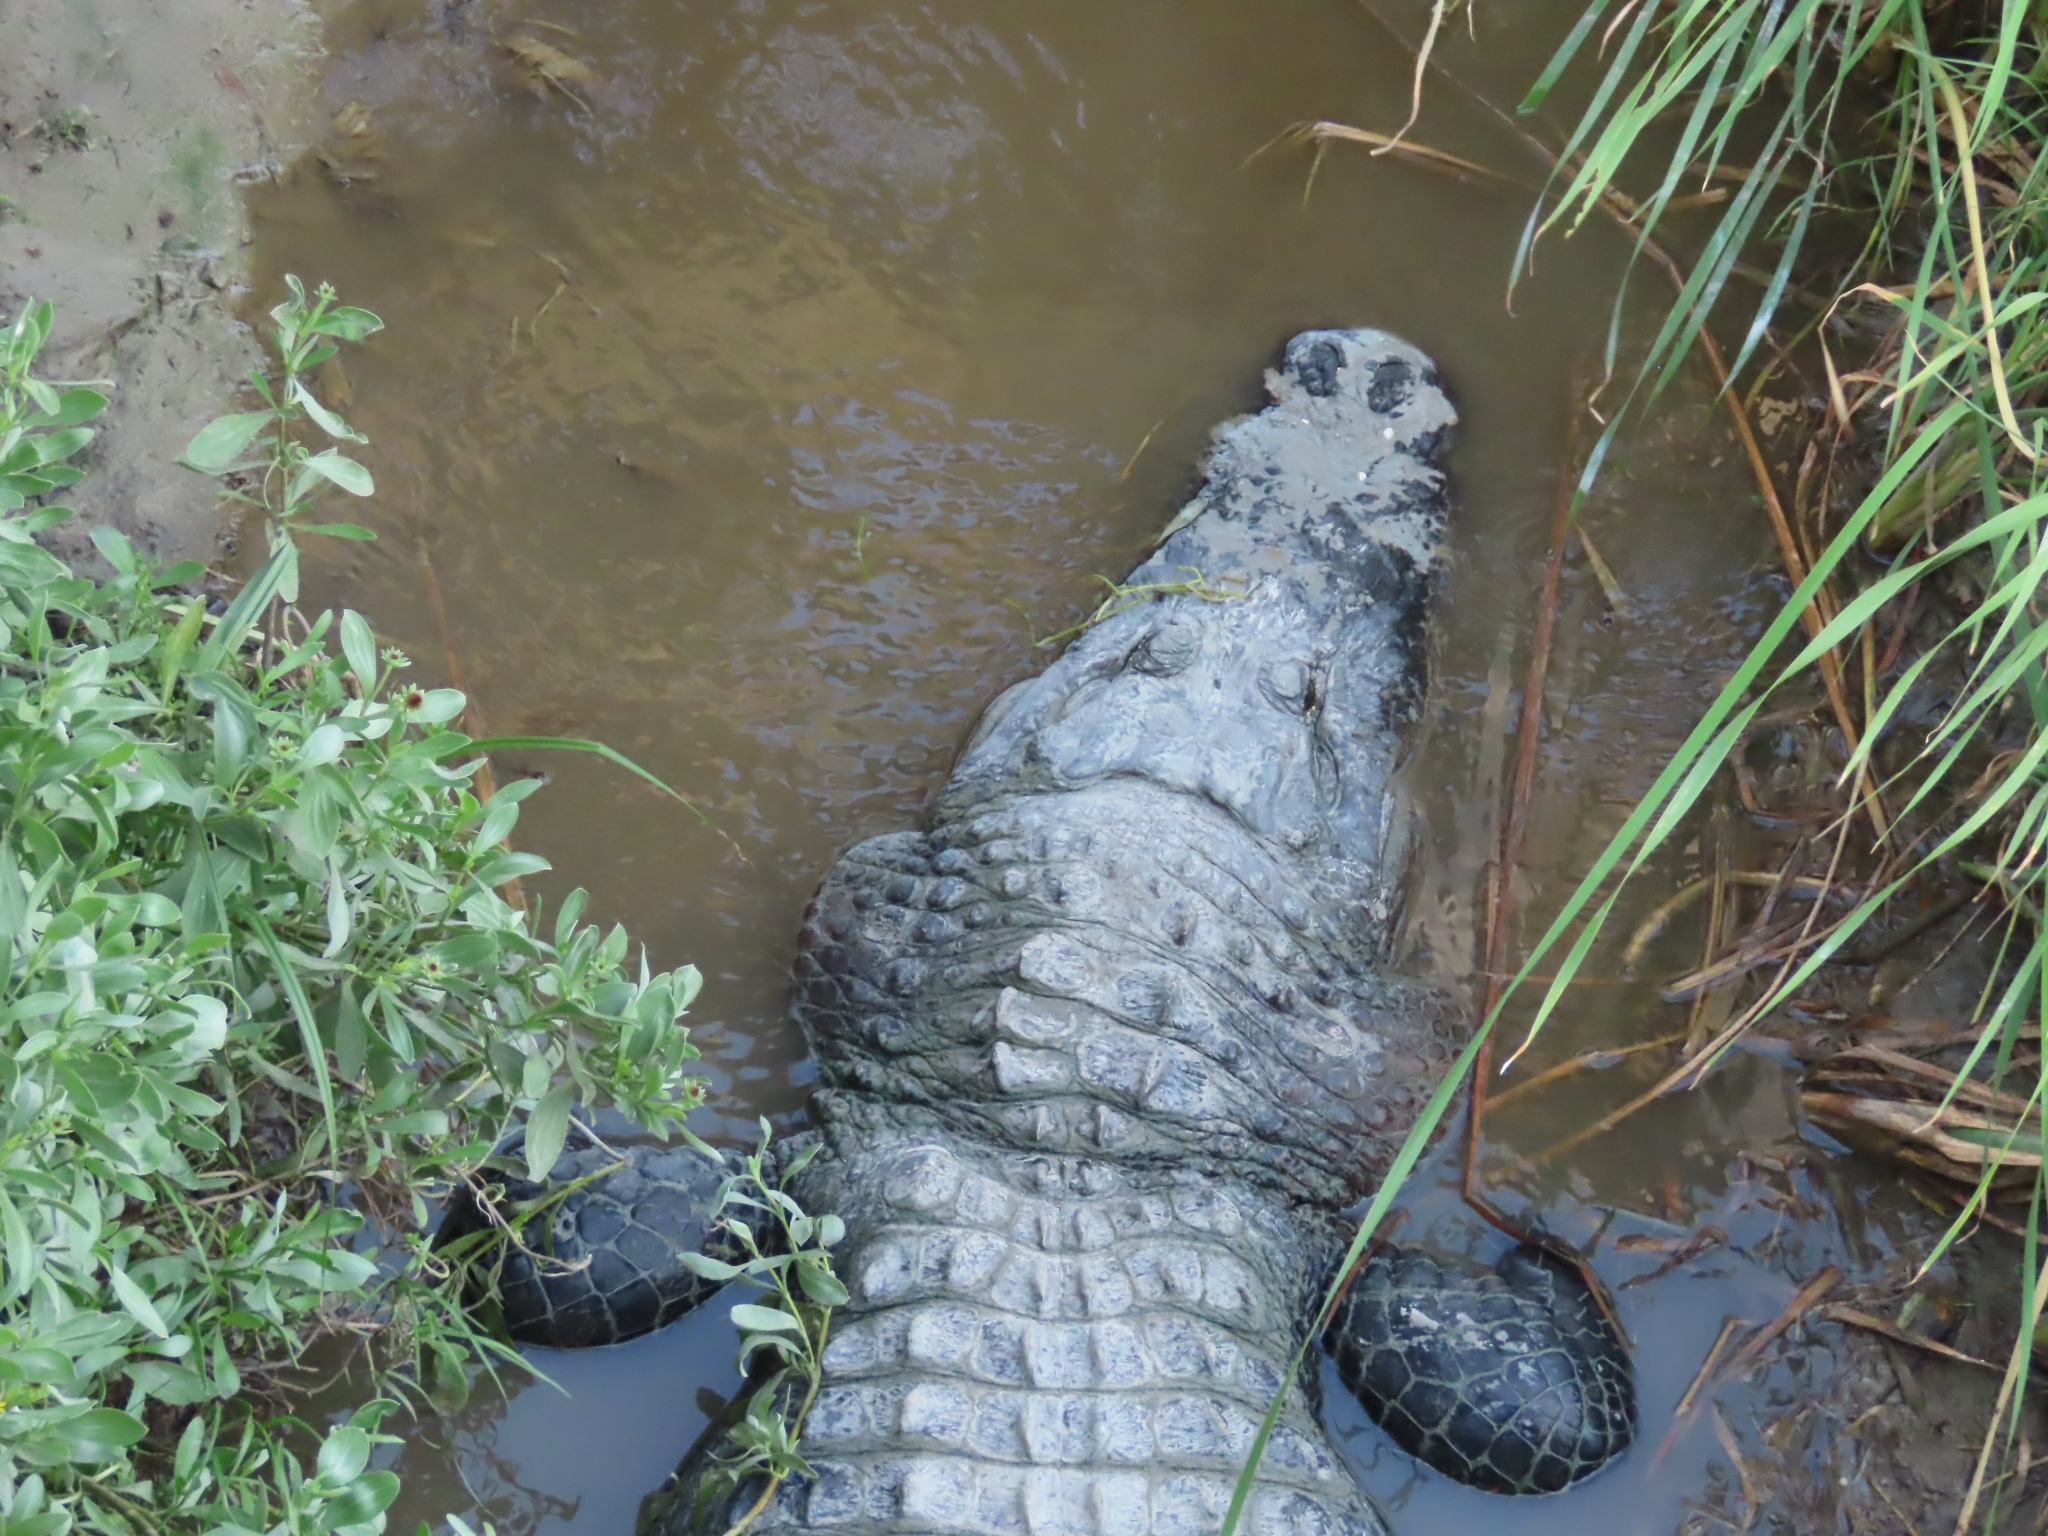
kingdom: Animalia
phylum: Chordata
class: Crocodylia
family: Alligatoridae
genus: Alligator
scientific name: Alligator mississippiensis
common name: American alligator
